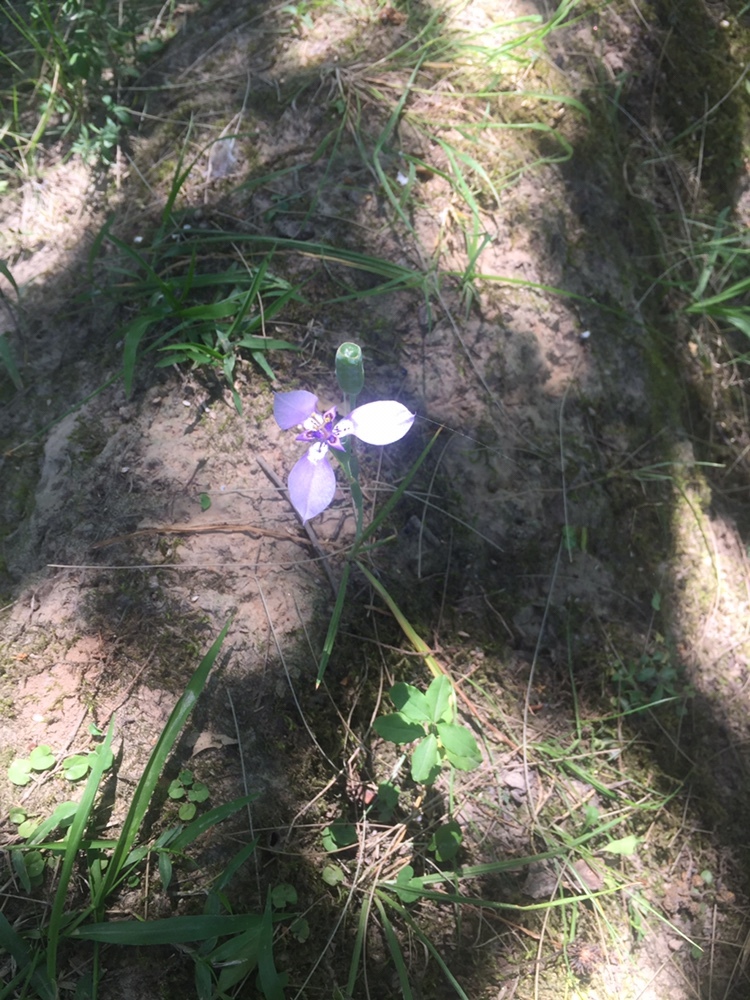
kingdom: Plantae
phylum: Tracheophyta
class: Liliopsida
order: Asparagales
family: Iridaceae
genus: Herbertia
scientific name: Herbertia lahue
